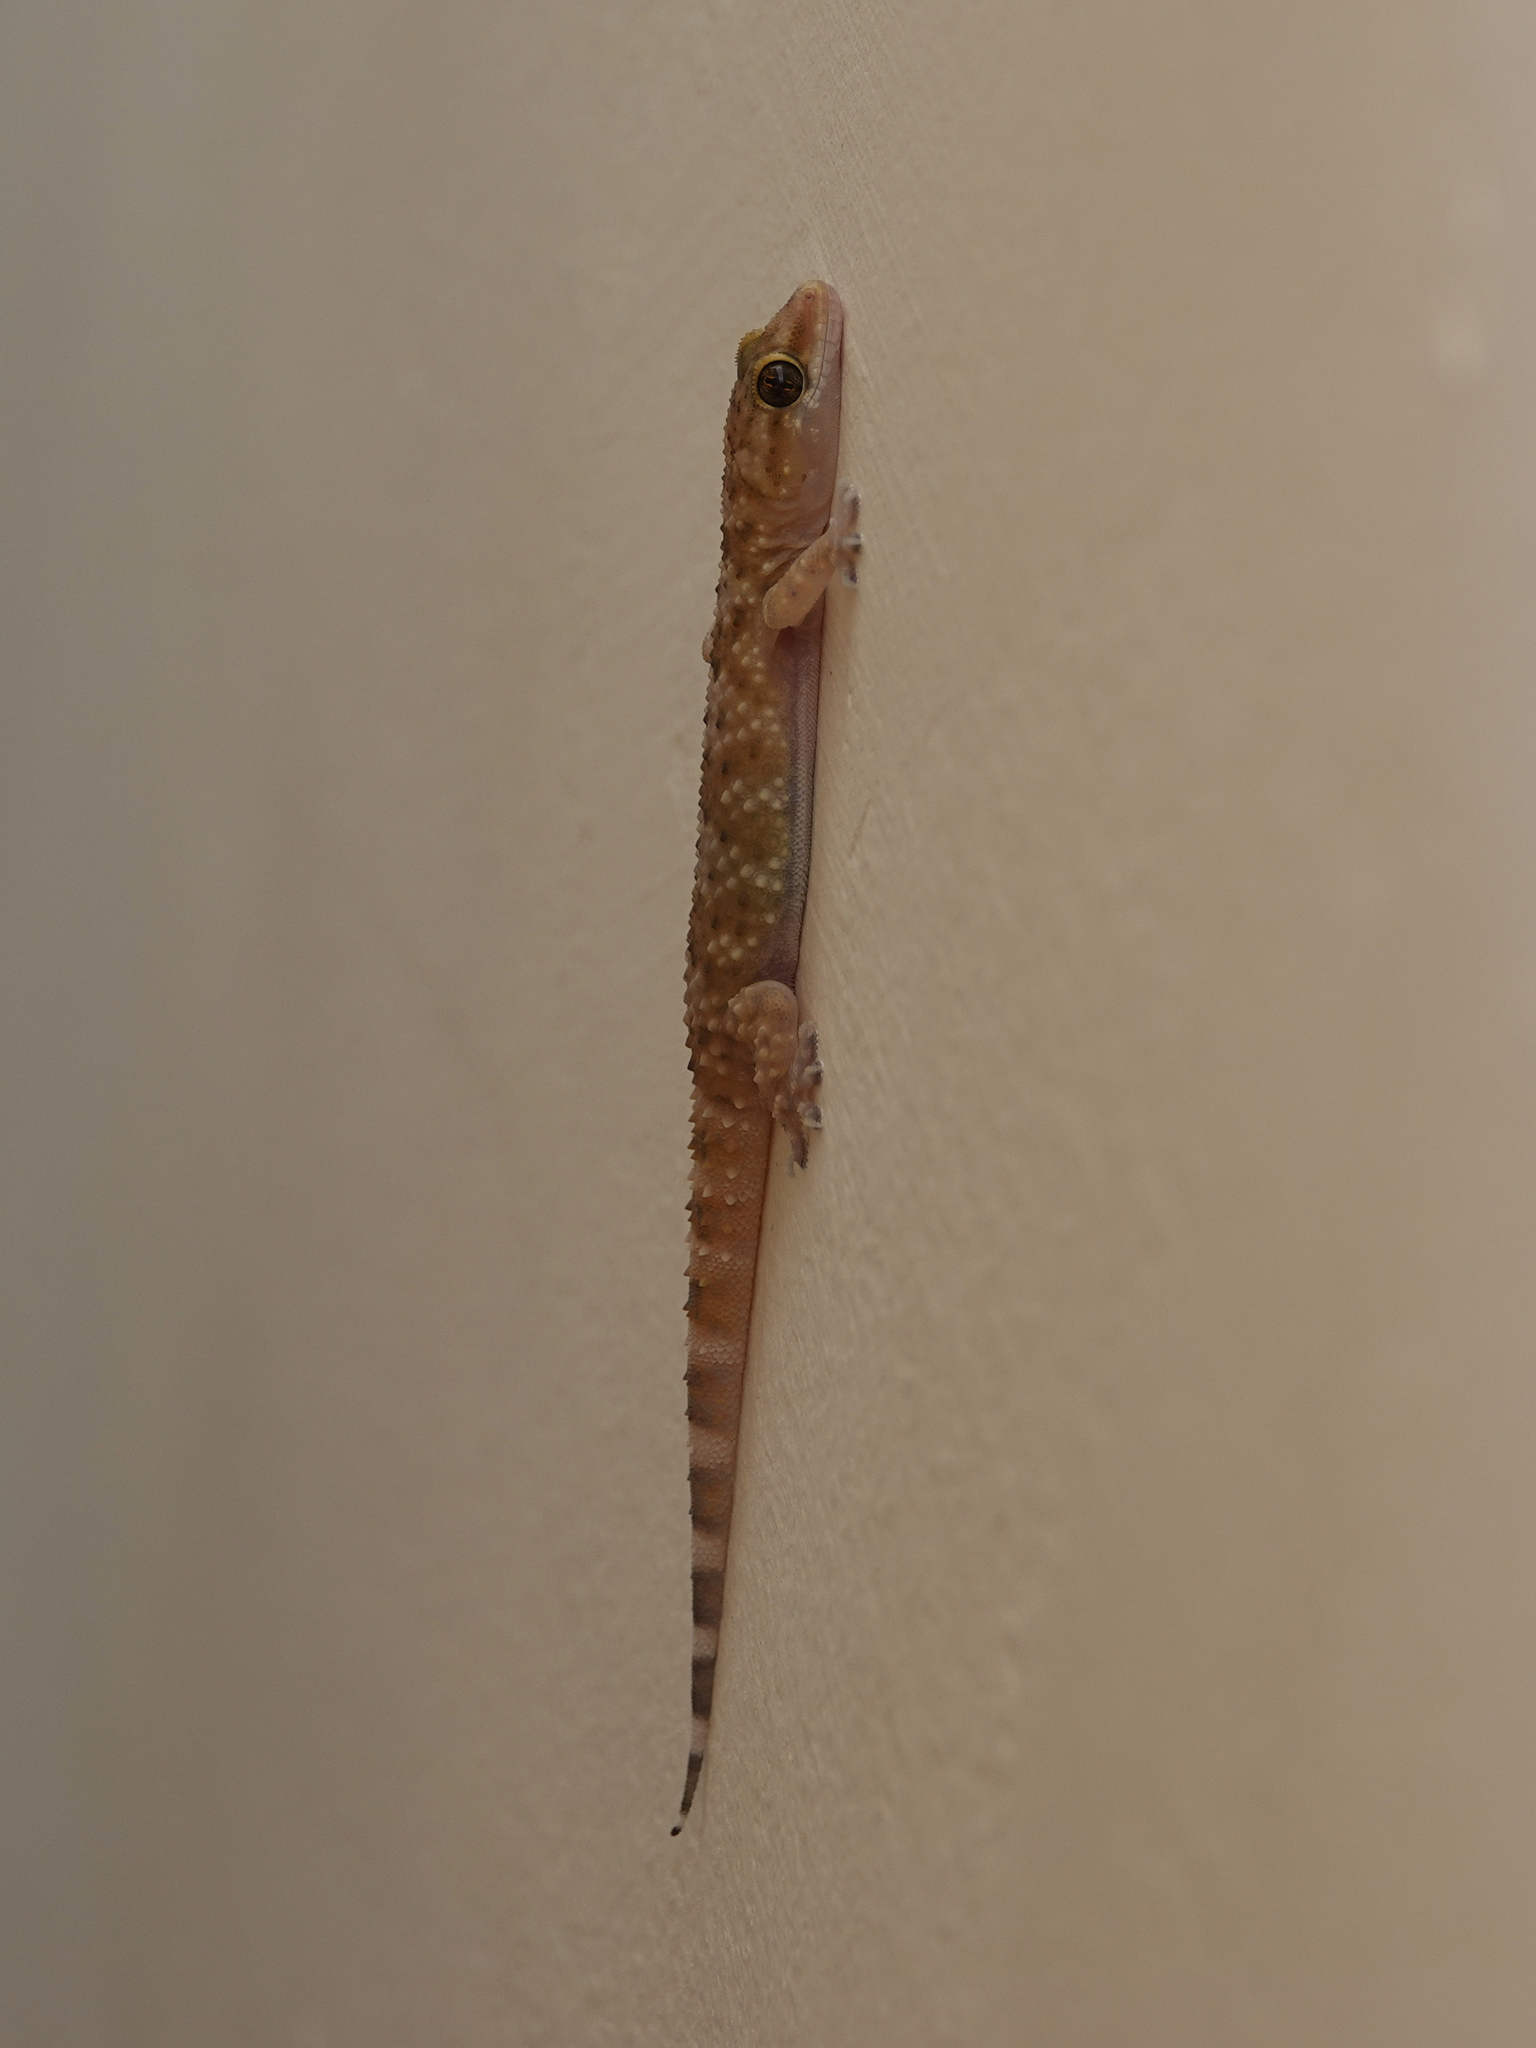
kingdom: Animalia
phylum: Chordata
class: Squamata
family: Gekkonidae
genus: Hemidactylus
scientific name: Hemidactylus turcicus
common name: Turkish gecko
